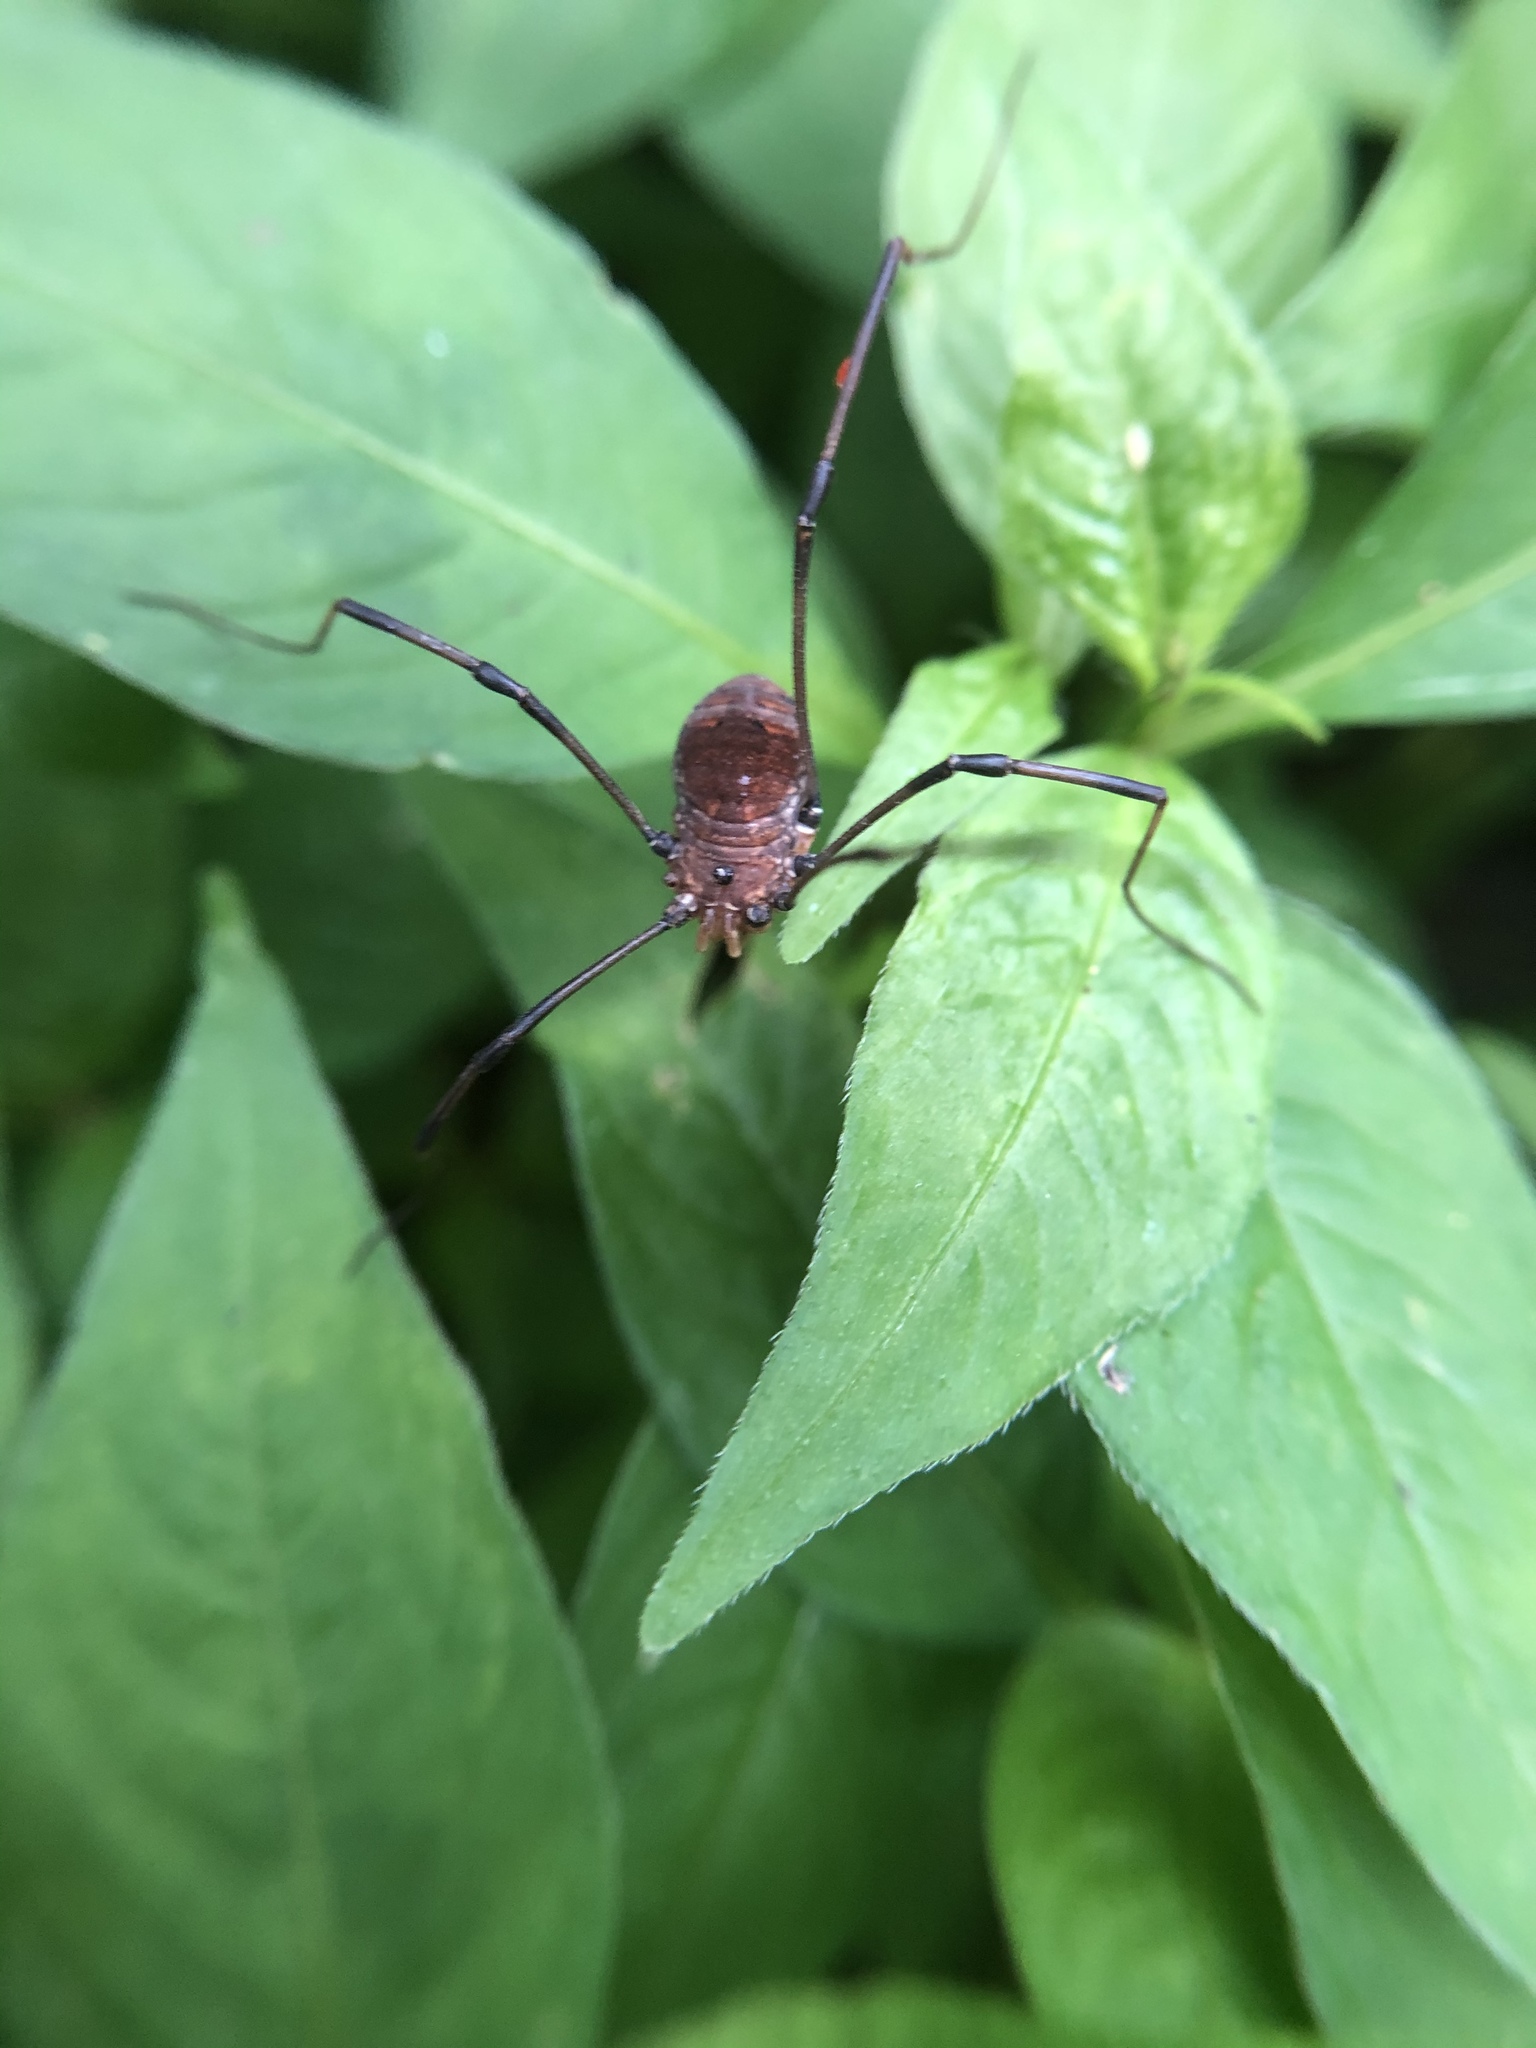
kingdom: Animalia
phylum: Arthropoda
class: Arachnida
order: Opiliones
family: Sclerosomatidae
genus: Leiobunum
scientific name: Leiobunum verrucosum
